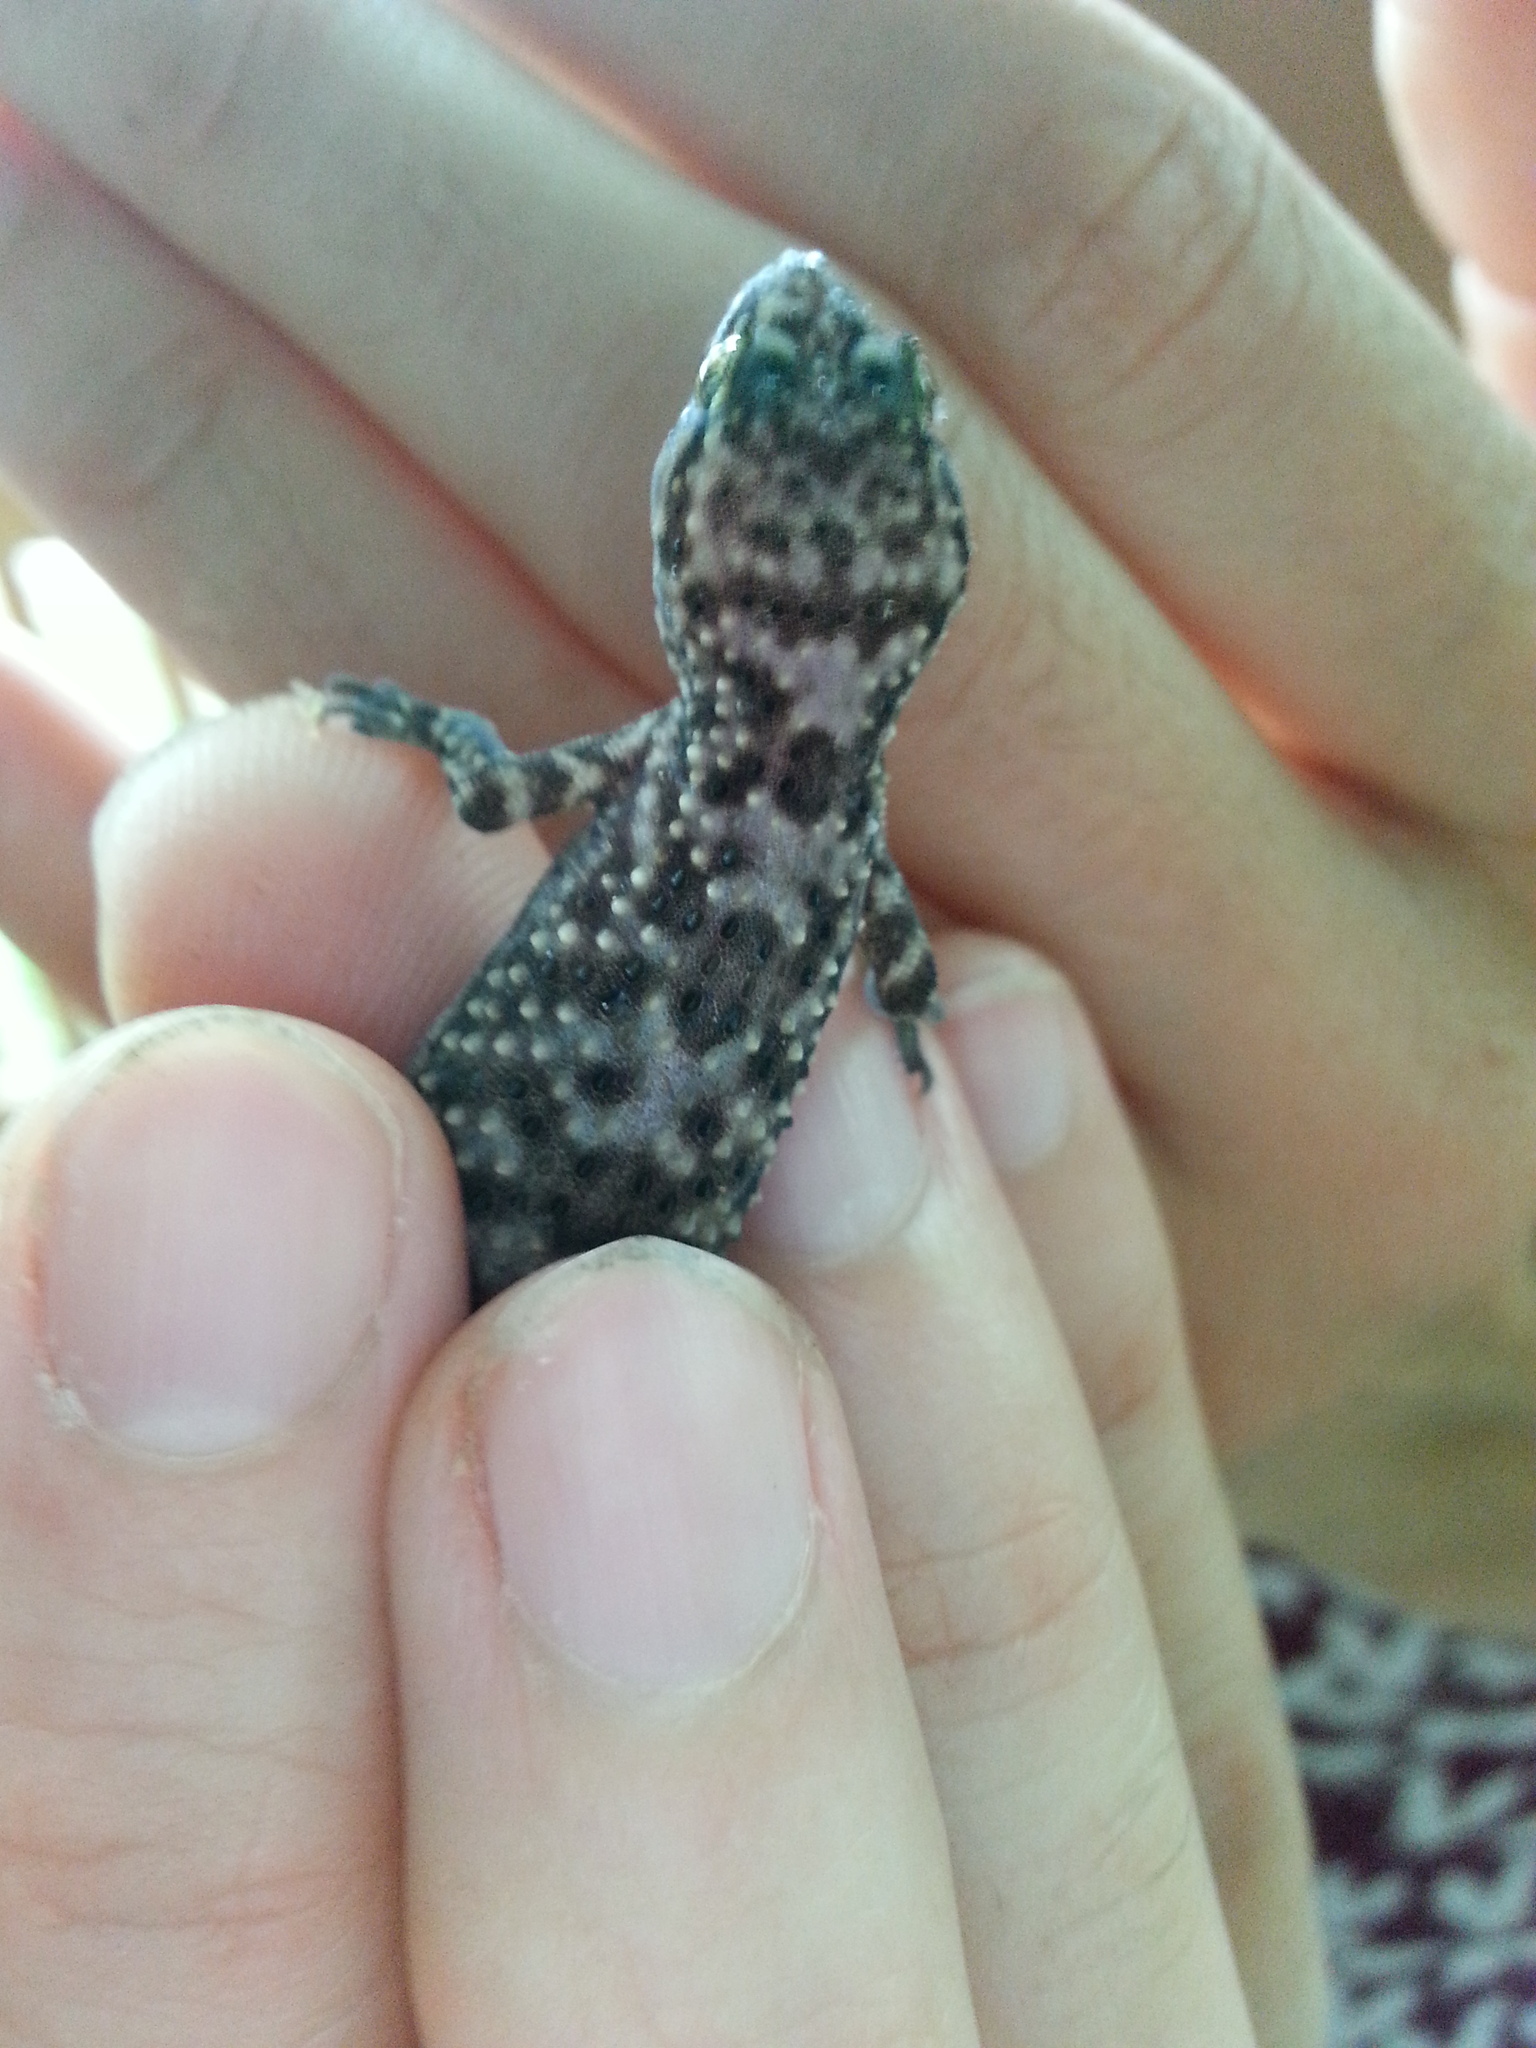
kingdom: Animalia
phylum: Chordata
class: Squamata
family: Gekkonidae
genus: Hemidactylus
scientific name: Hemidactylus turcicus
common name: Turkish gecko
